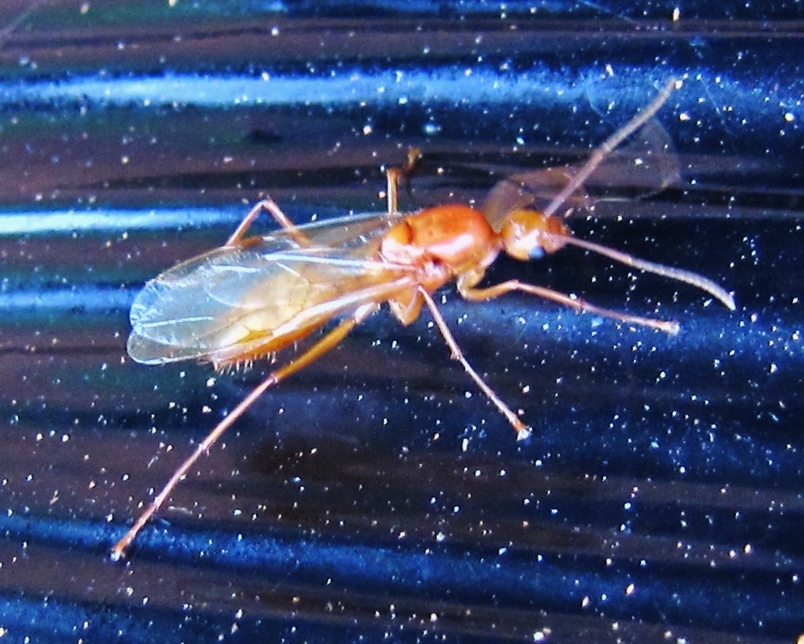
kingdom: Animalia
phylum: Arthropoda
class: Insecta
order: Hymenoptera
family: Formicidae
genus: Camponotus
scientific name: Camponotus castaneus
